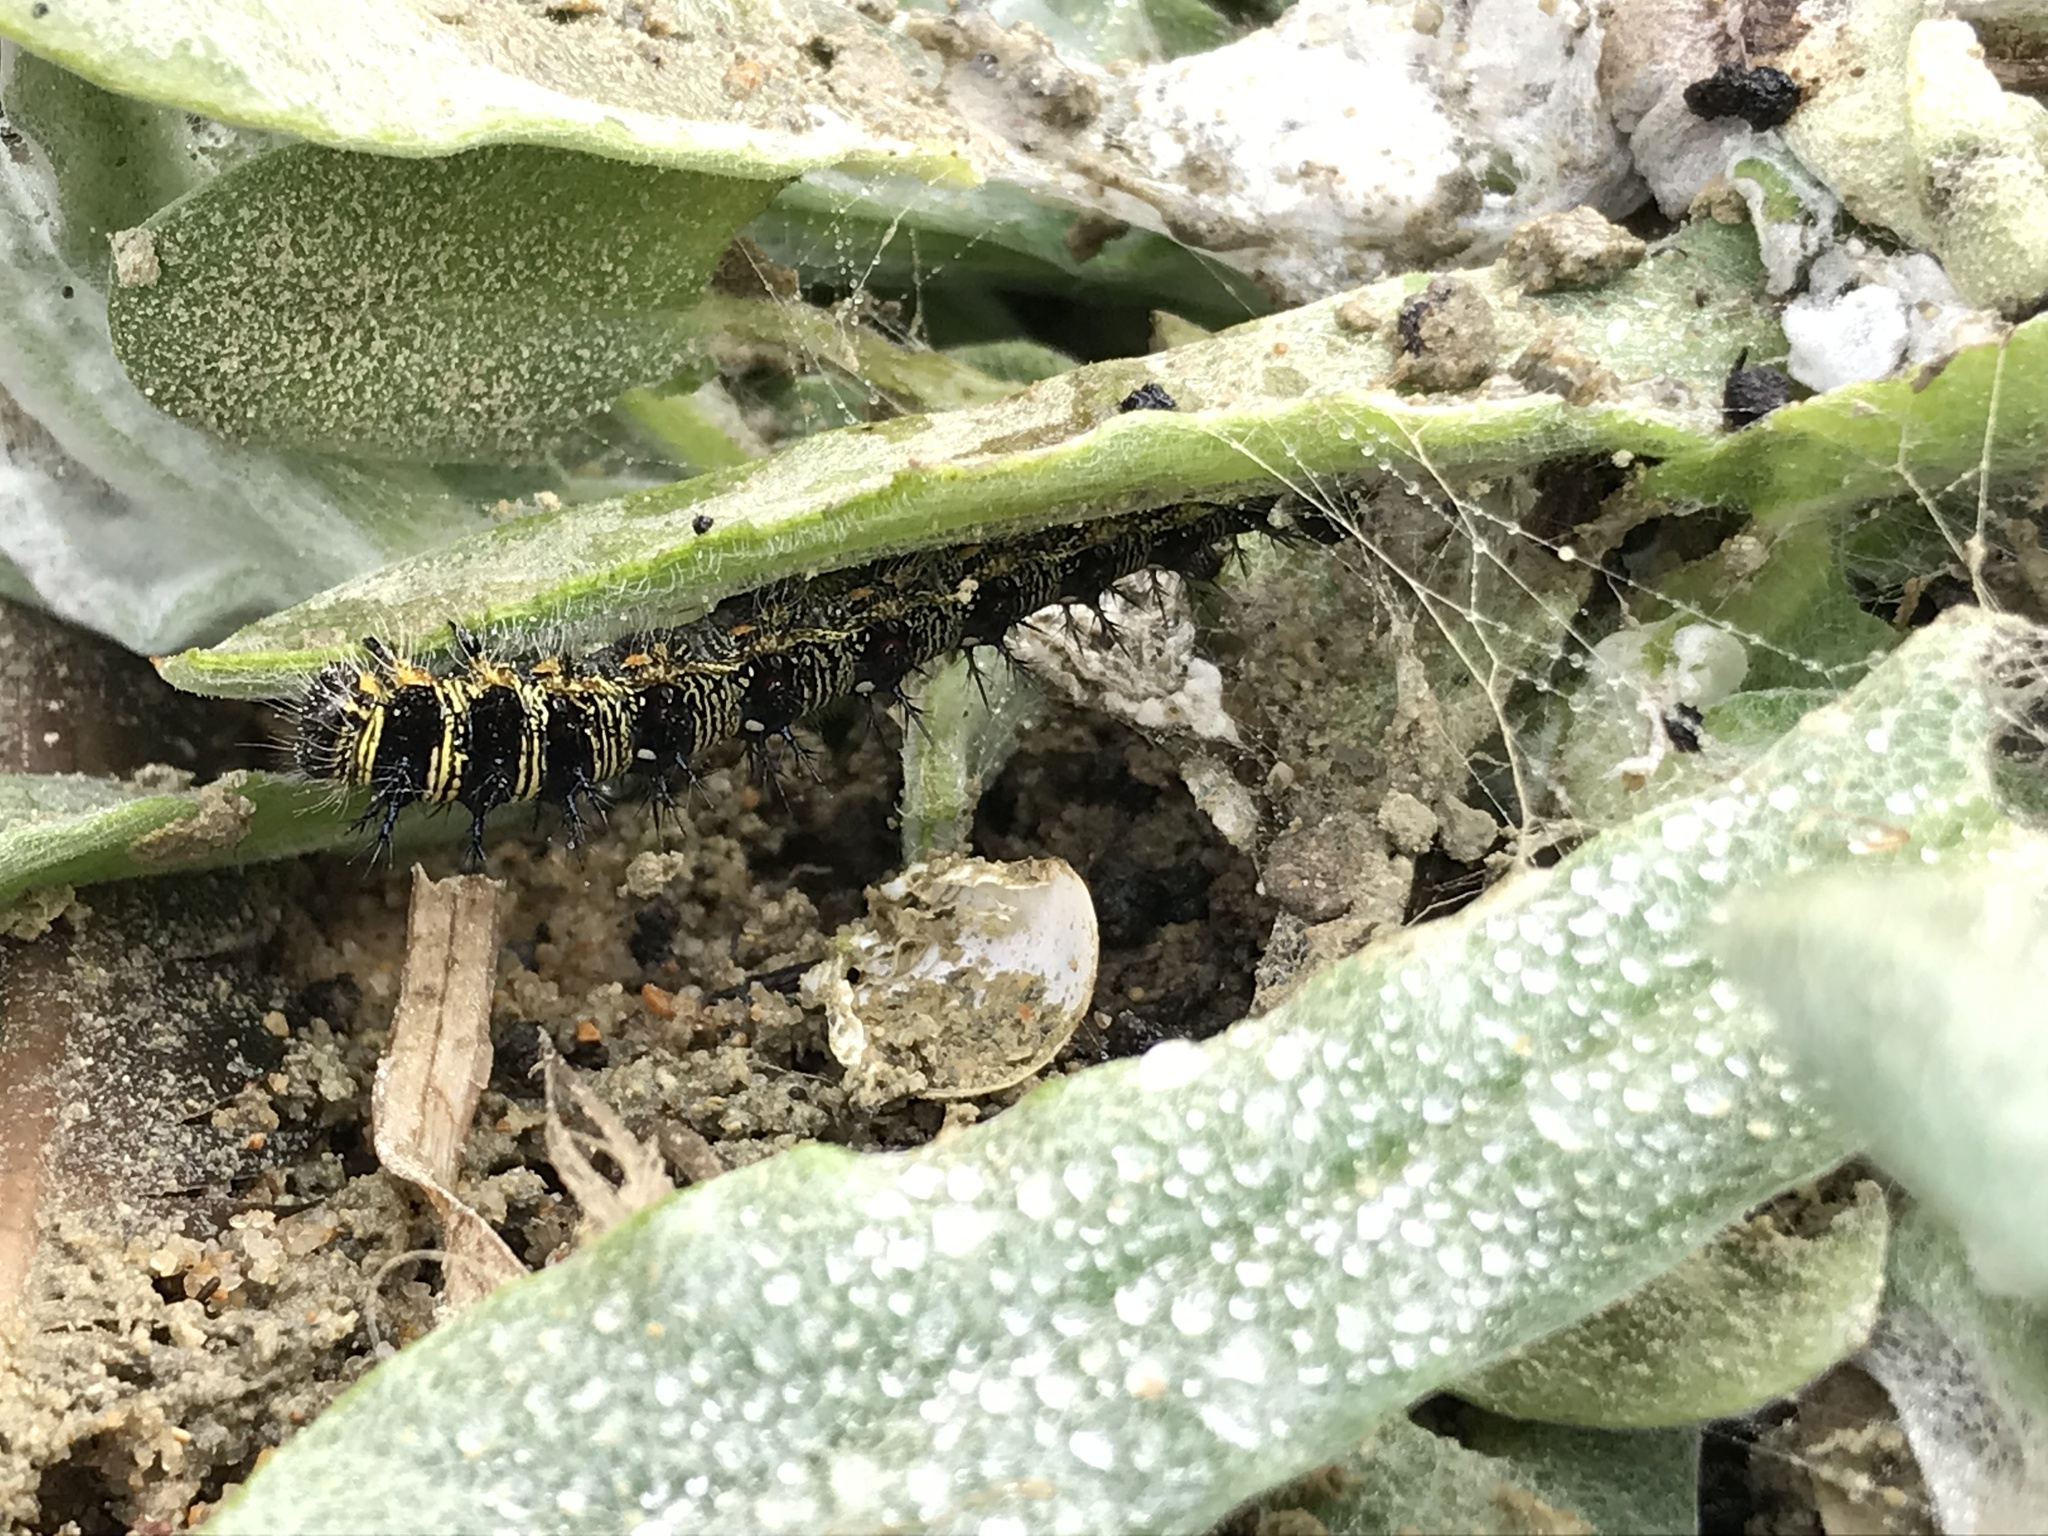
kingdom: Animalia
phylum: Arthropoda
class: Insecta
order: Lepidoptera
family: Nymphalidae
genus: Vanessa
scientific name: Vanessa virginiensis
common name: American lady
